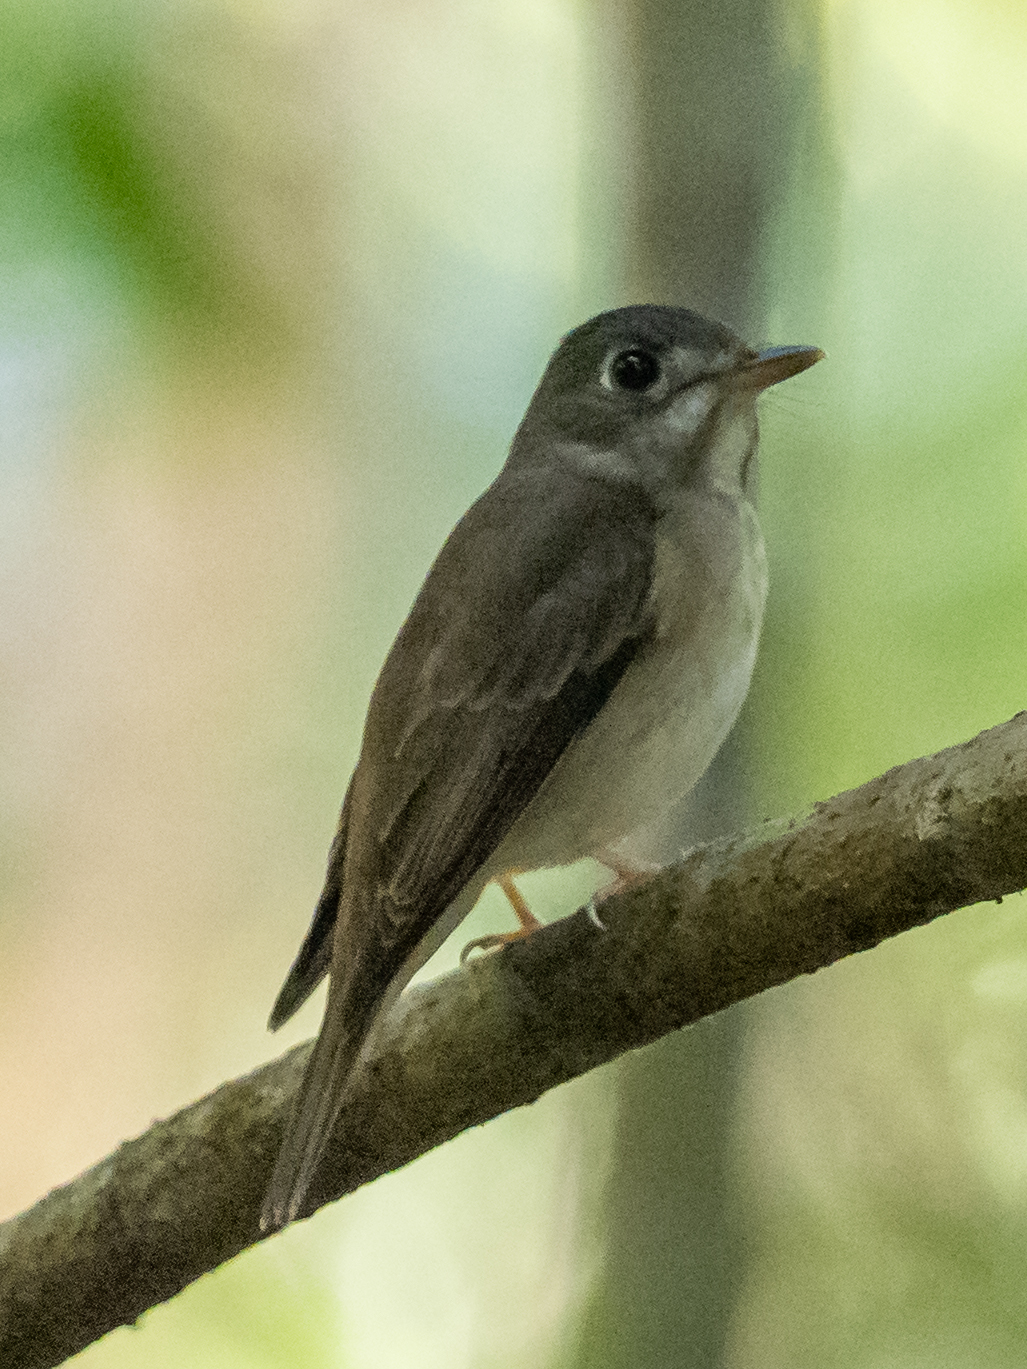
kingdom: Animalia
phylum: Chordata
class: Aves
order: Passeriformes
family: Muscicapidae
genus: Muscicapa
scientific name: Muscicapa muttui
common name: Brown-breasted flycatcher
